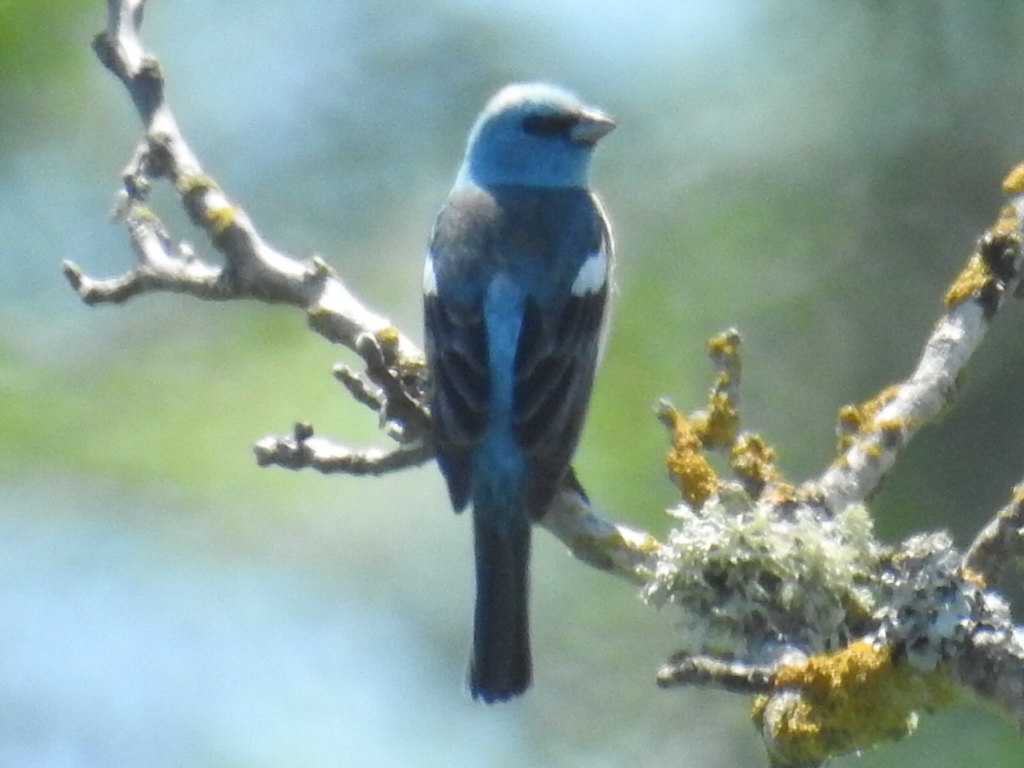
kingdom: Animalia
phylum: Chordata
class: Aves
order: Passeriformes
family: Cardinalidae
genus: Passerina
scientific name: Passerina amoena
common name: Lazuli bunting
